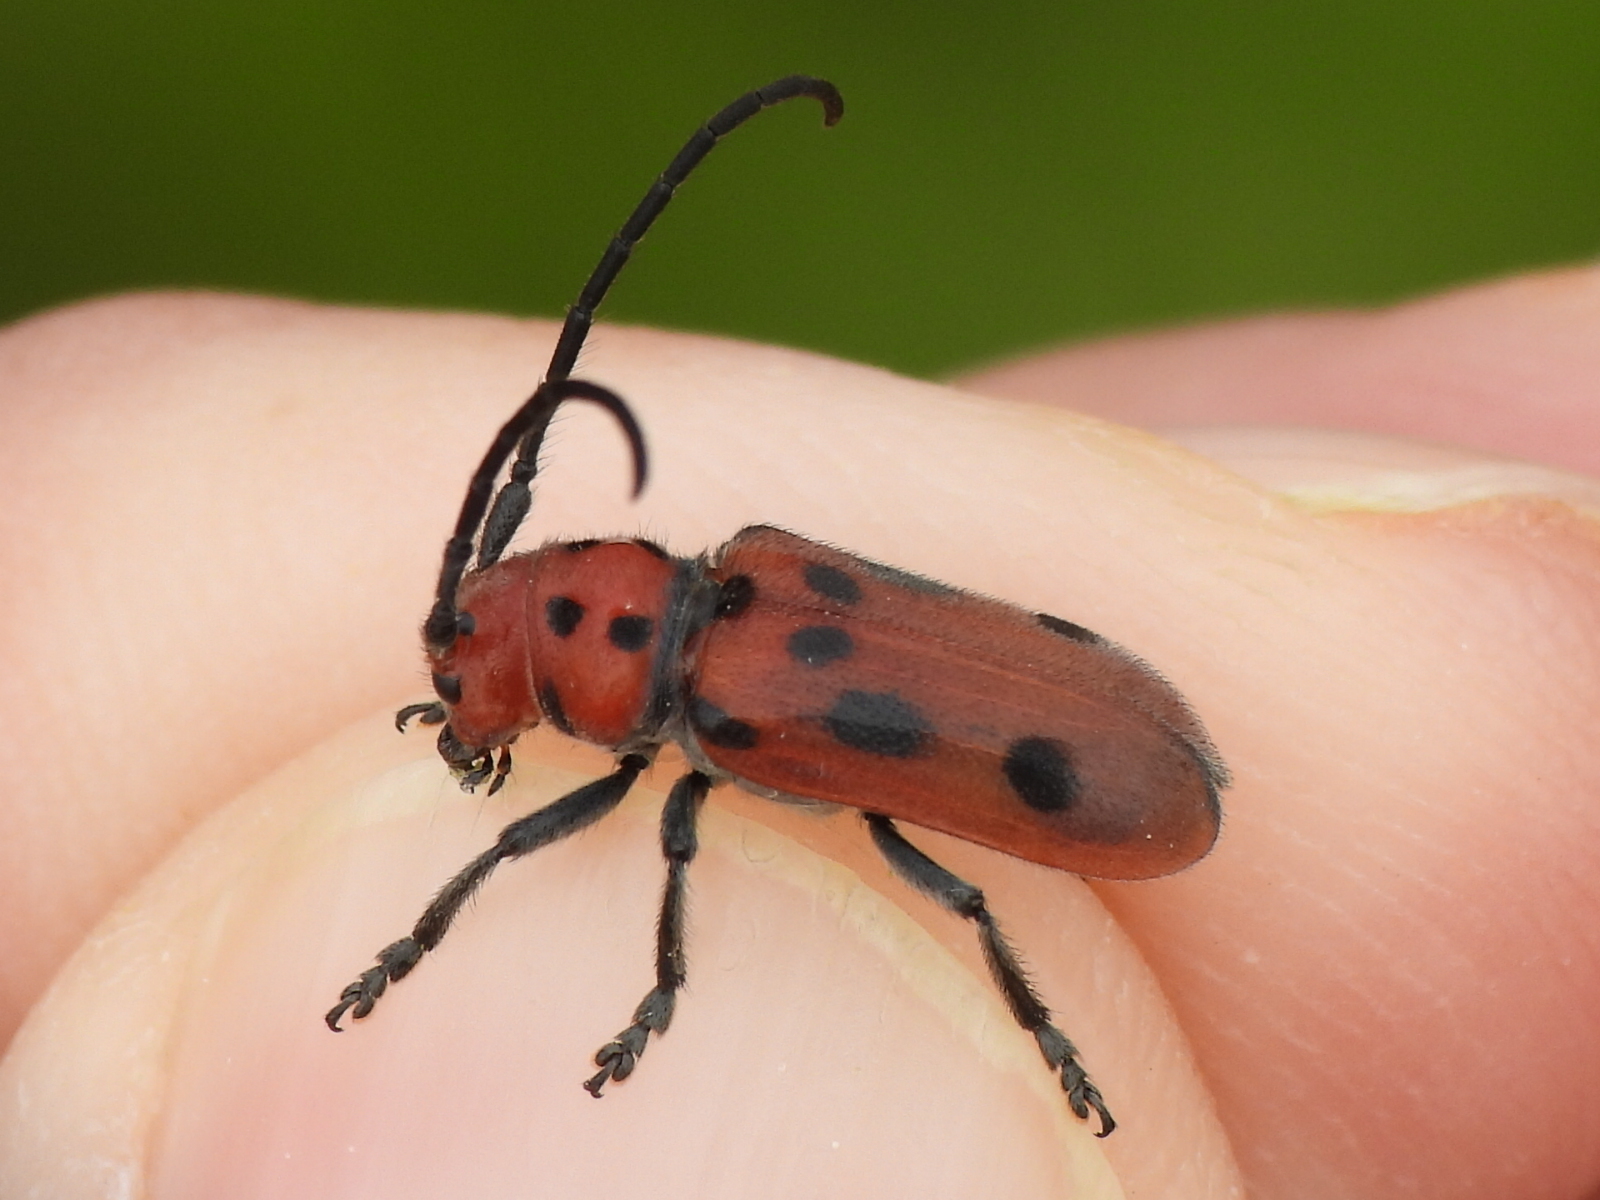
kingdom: Animalia
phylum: Arthropoda
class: Insecta
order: Coleoptera
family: Cerambycidae
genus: Tetraopes
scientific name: Tetraopes tetrophthalmus
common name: Red milkweed beetle
